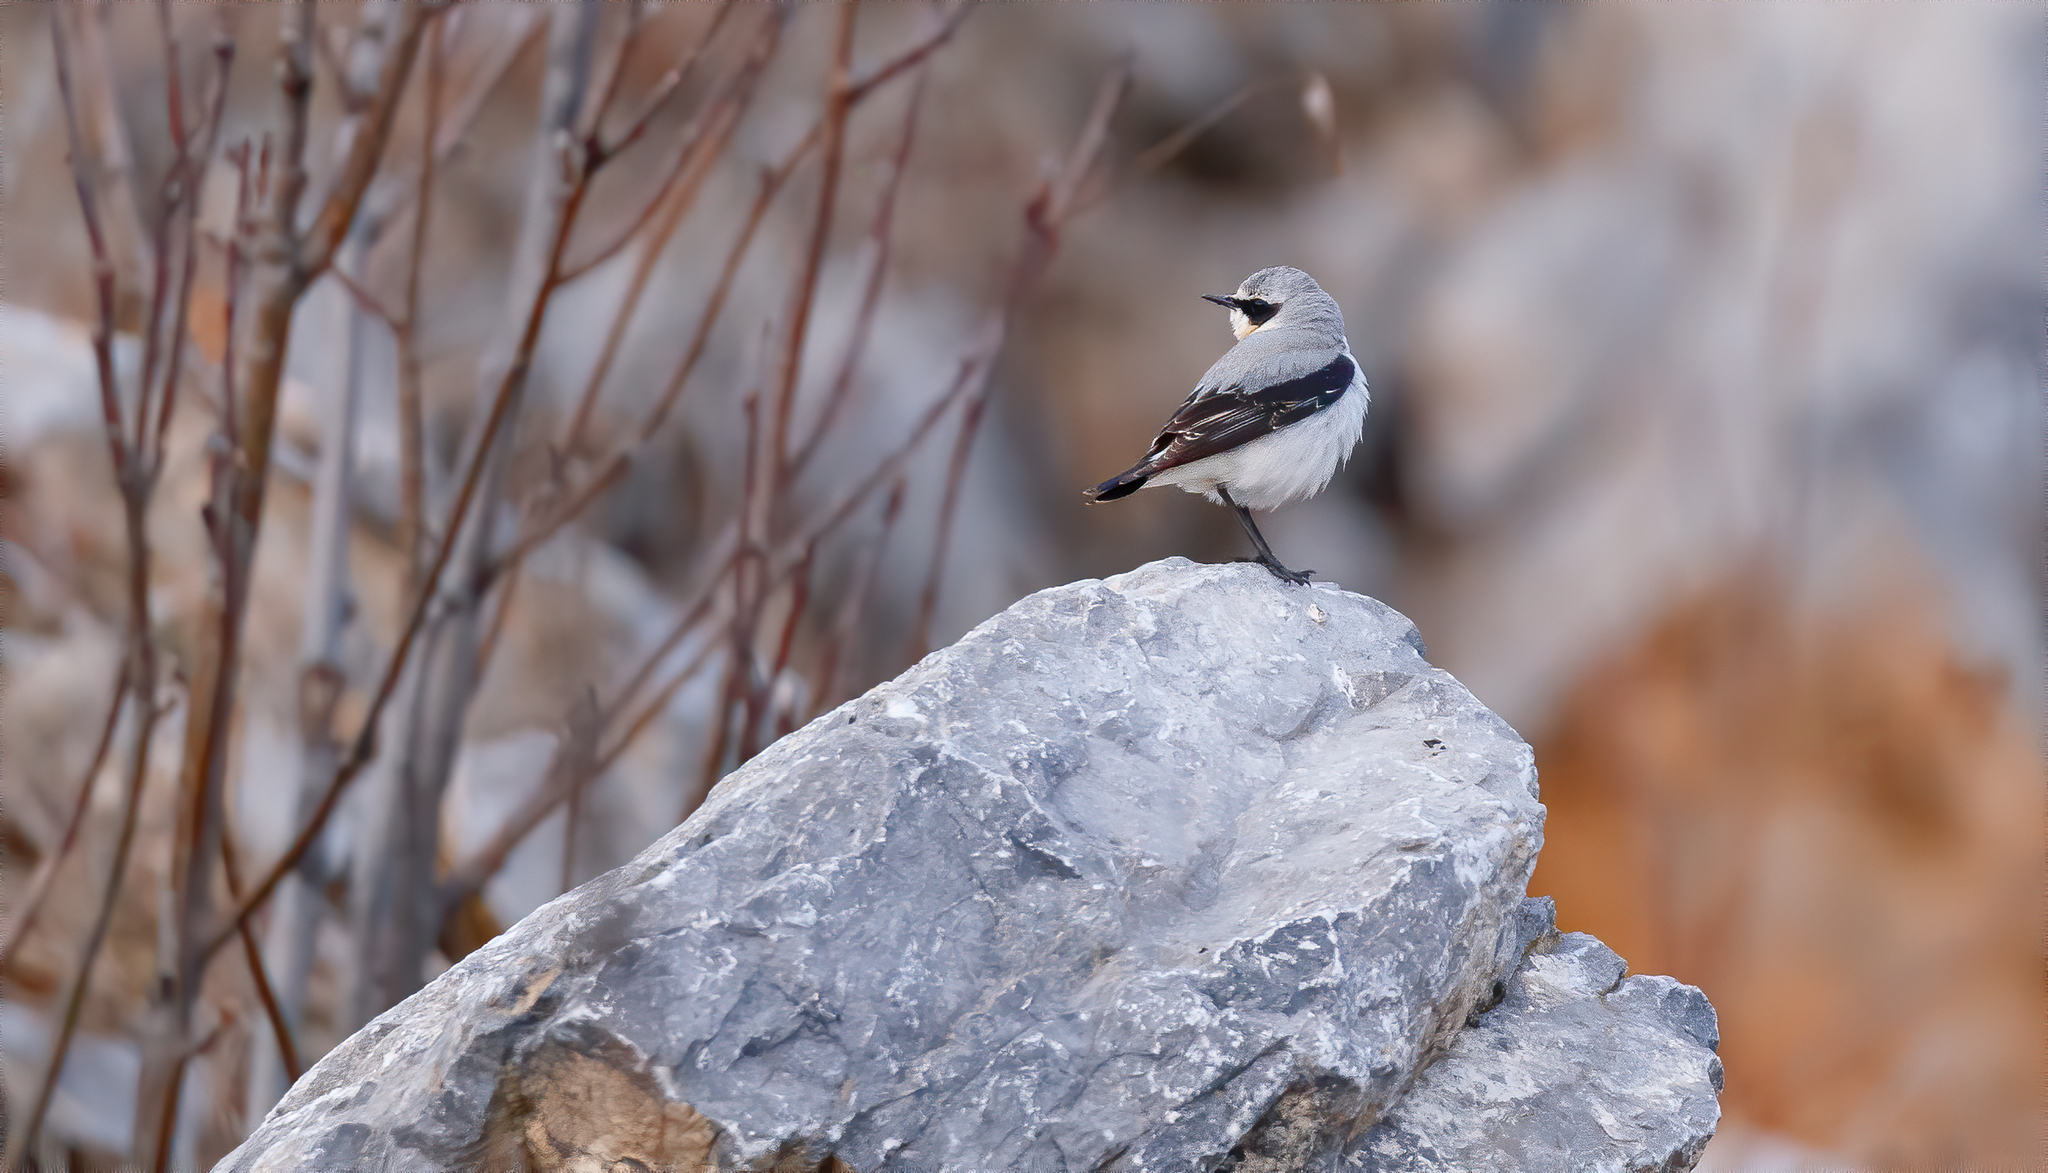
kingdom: Animalia
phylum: Chordata
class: Aves
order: Passeriformes
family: Muscicapidae
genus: Oenanthe
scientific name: Oenanthe oenanthe
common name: Northern wheatear
